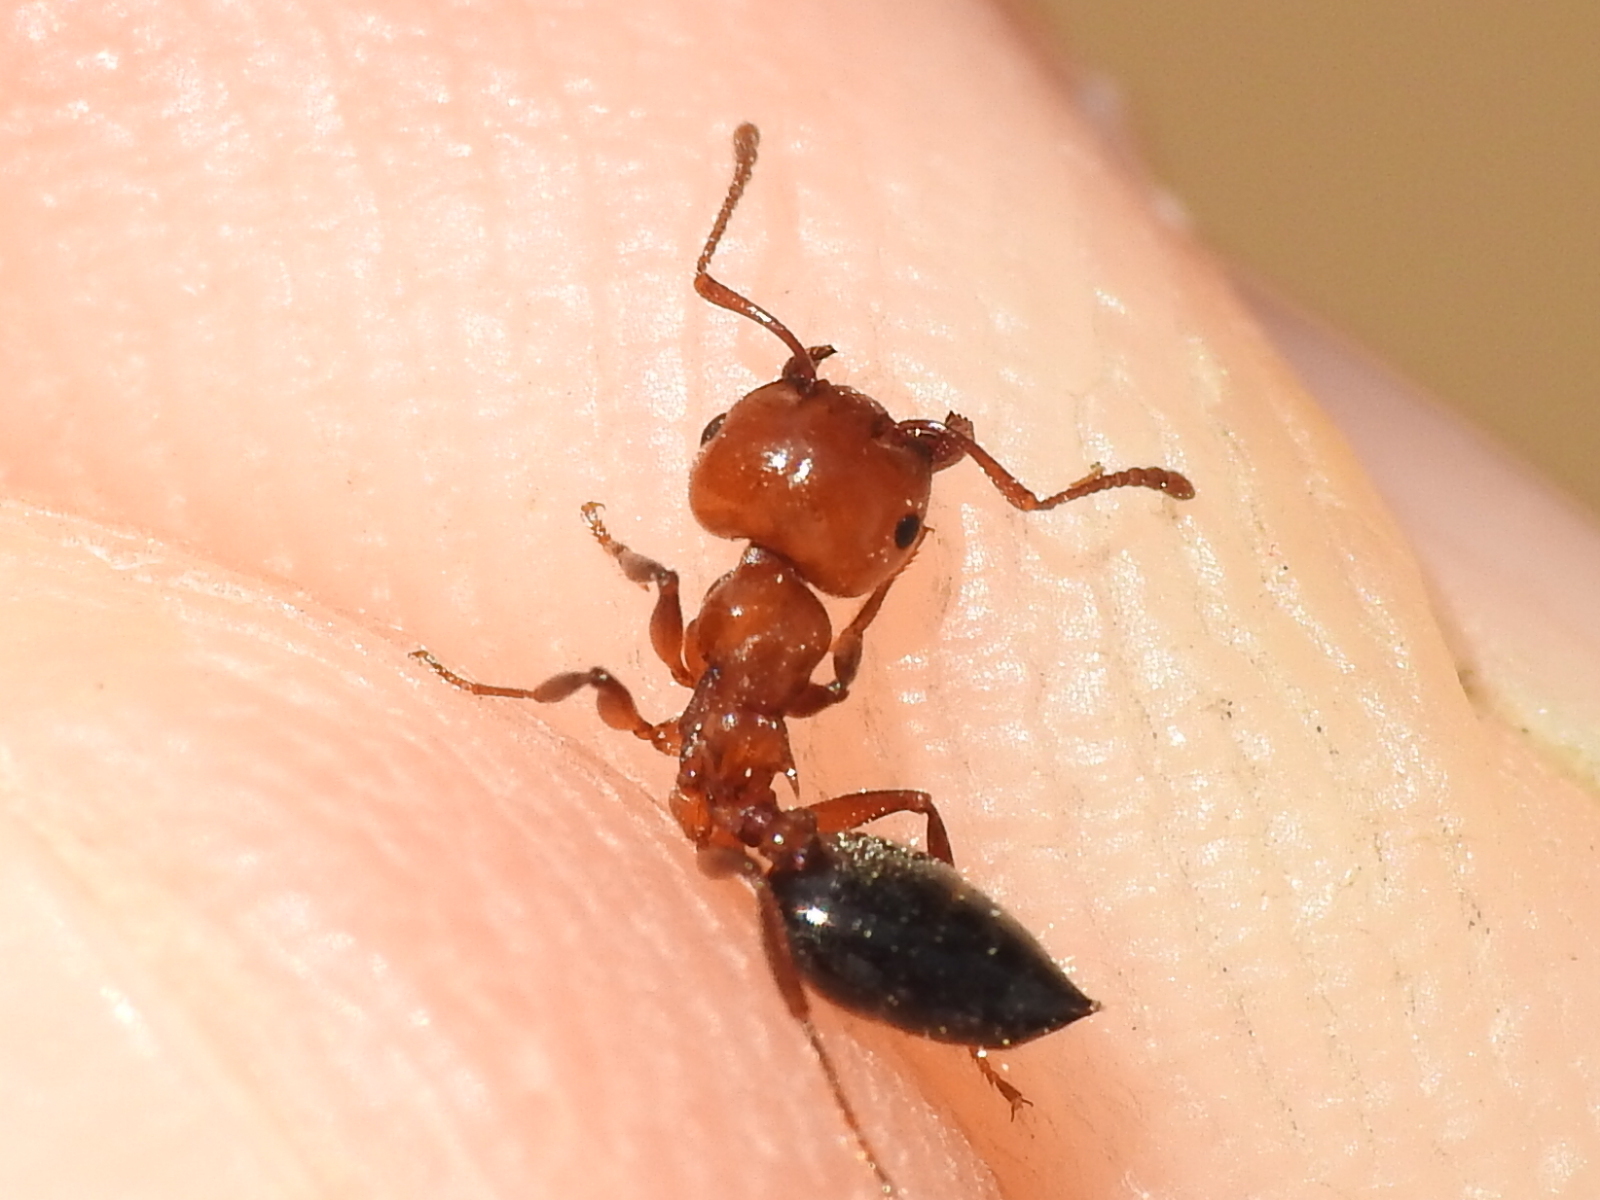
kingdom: Animalia
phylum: Arthropoda
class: Insecta
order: Hymenoptera
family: Formicidae
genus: Crematogaster
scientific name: Crematogaster laeviuscula
